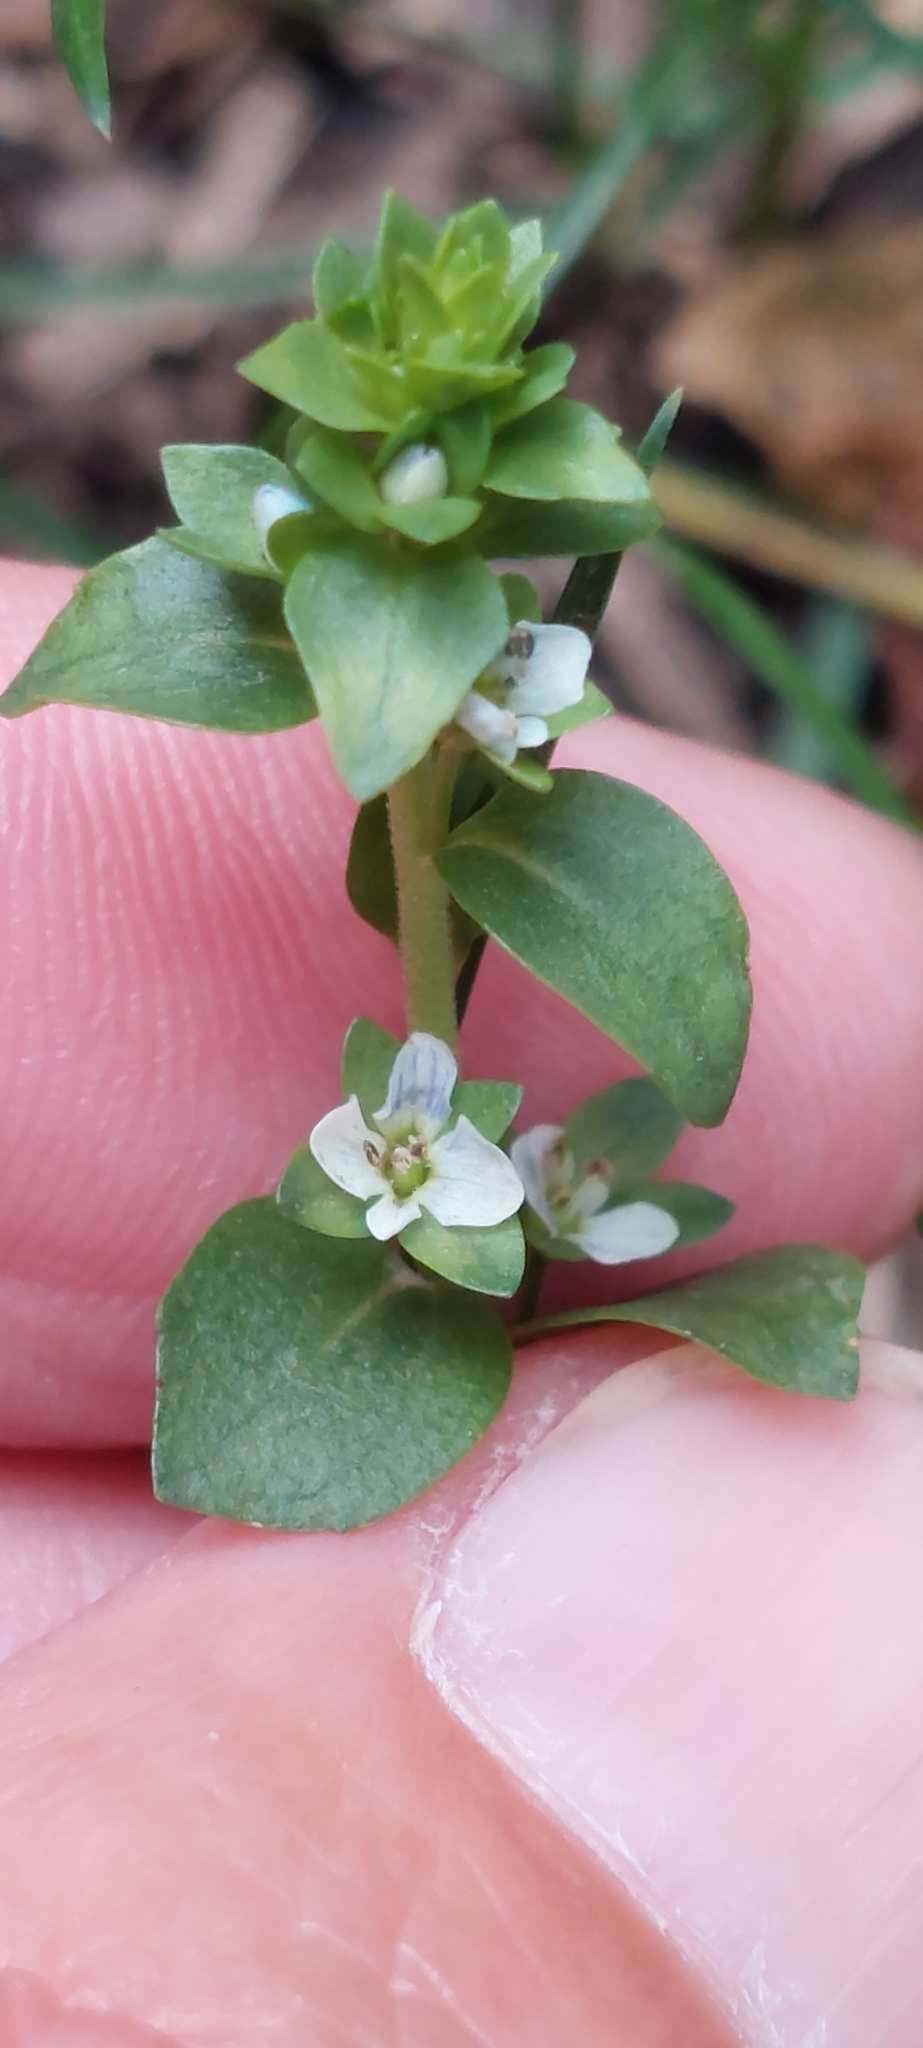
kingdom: Plantae
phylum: Tracheophyta
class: Magnoliopsida
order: Lamiales
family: Plantaginaceae
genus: Veronica
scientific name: Veronica serpyllifolia
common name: Thyme-leaved speedwell
